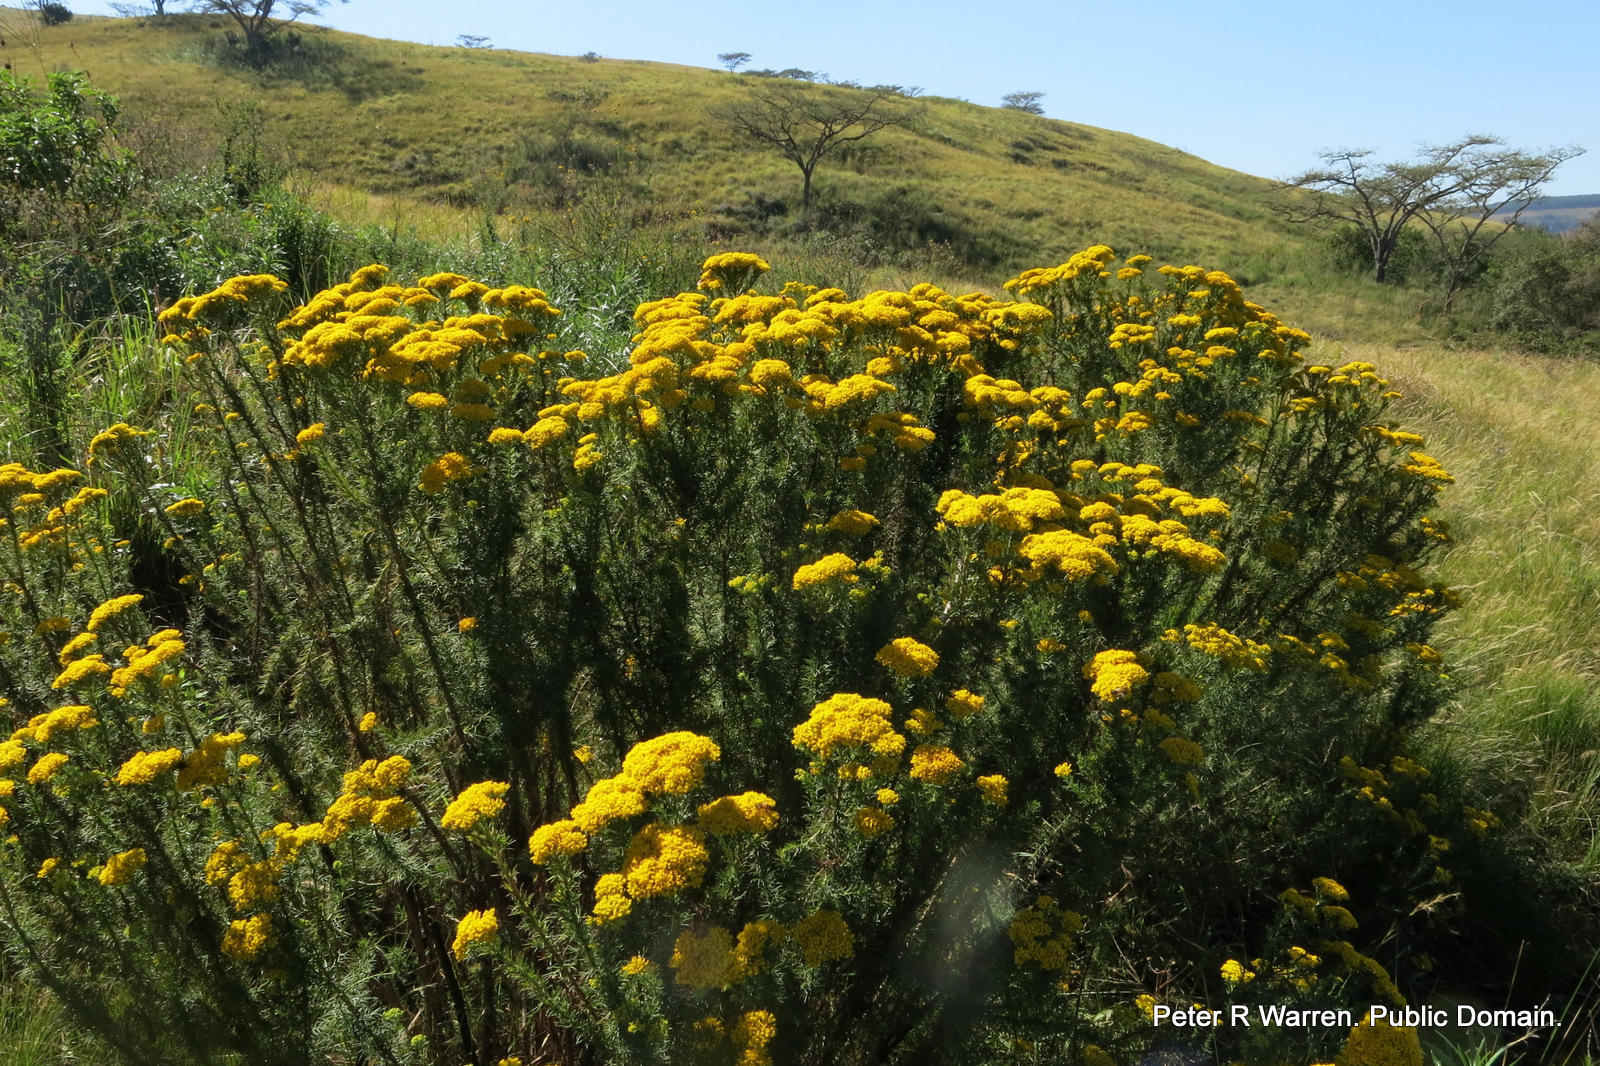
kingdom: Plantae
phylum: Tracheophyta
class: Magnoliopsida
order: Asterales
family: Asteraceae
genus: Phymaspermum
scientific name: Phymaspermum acerosum
